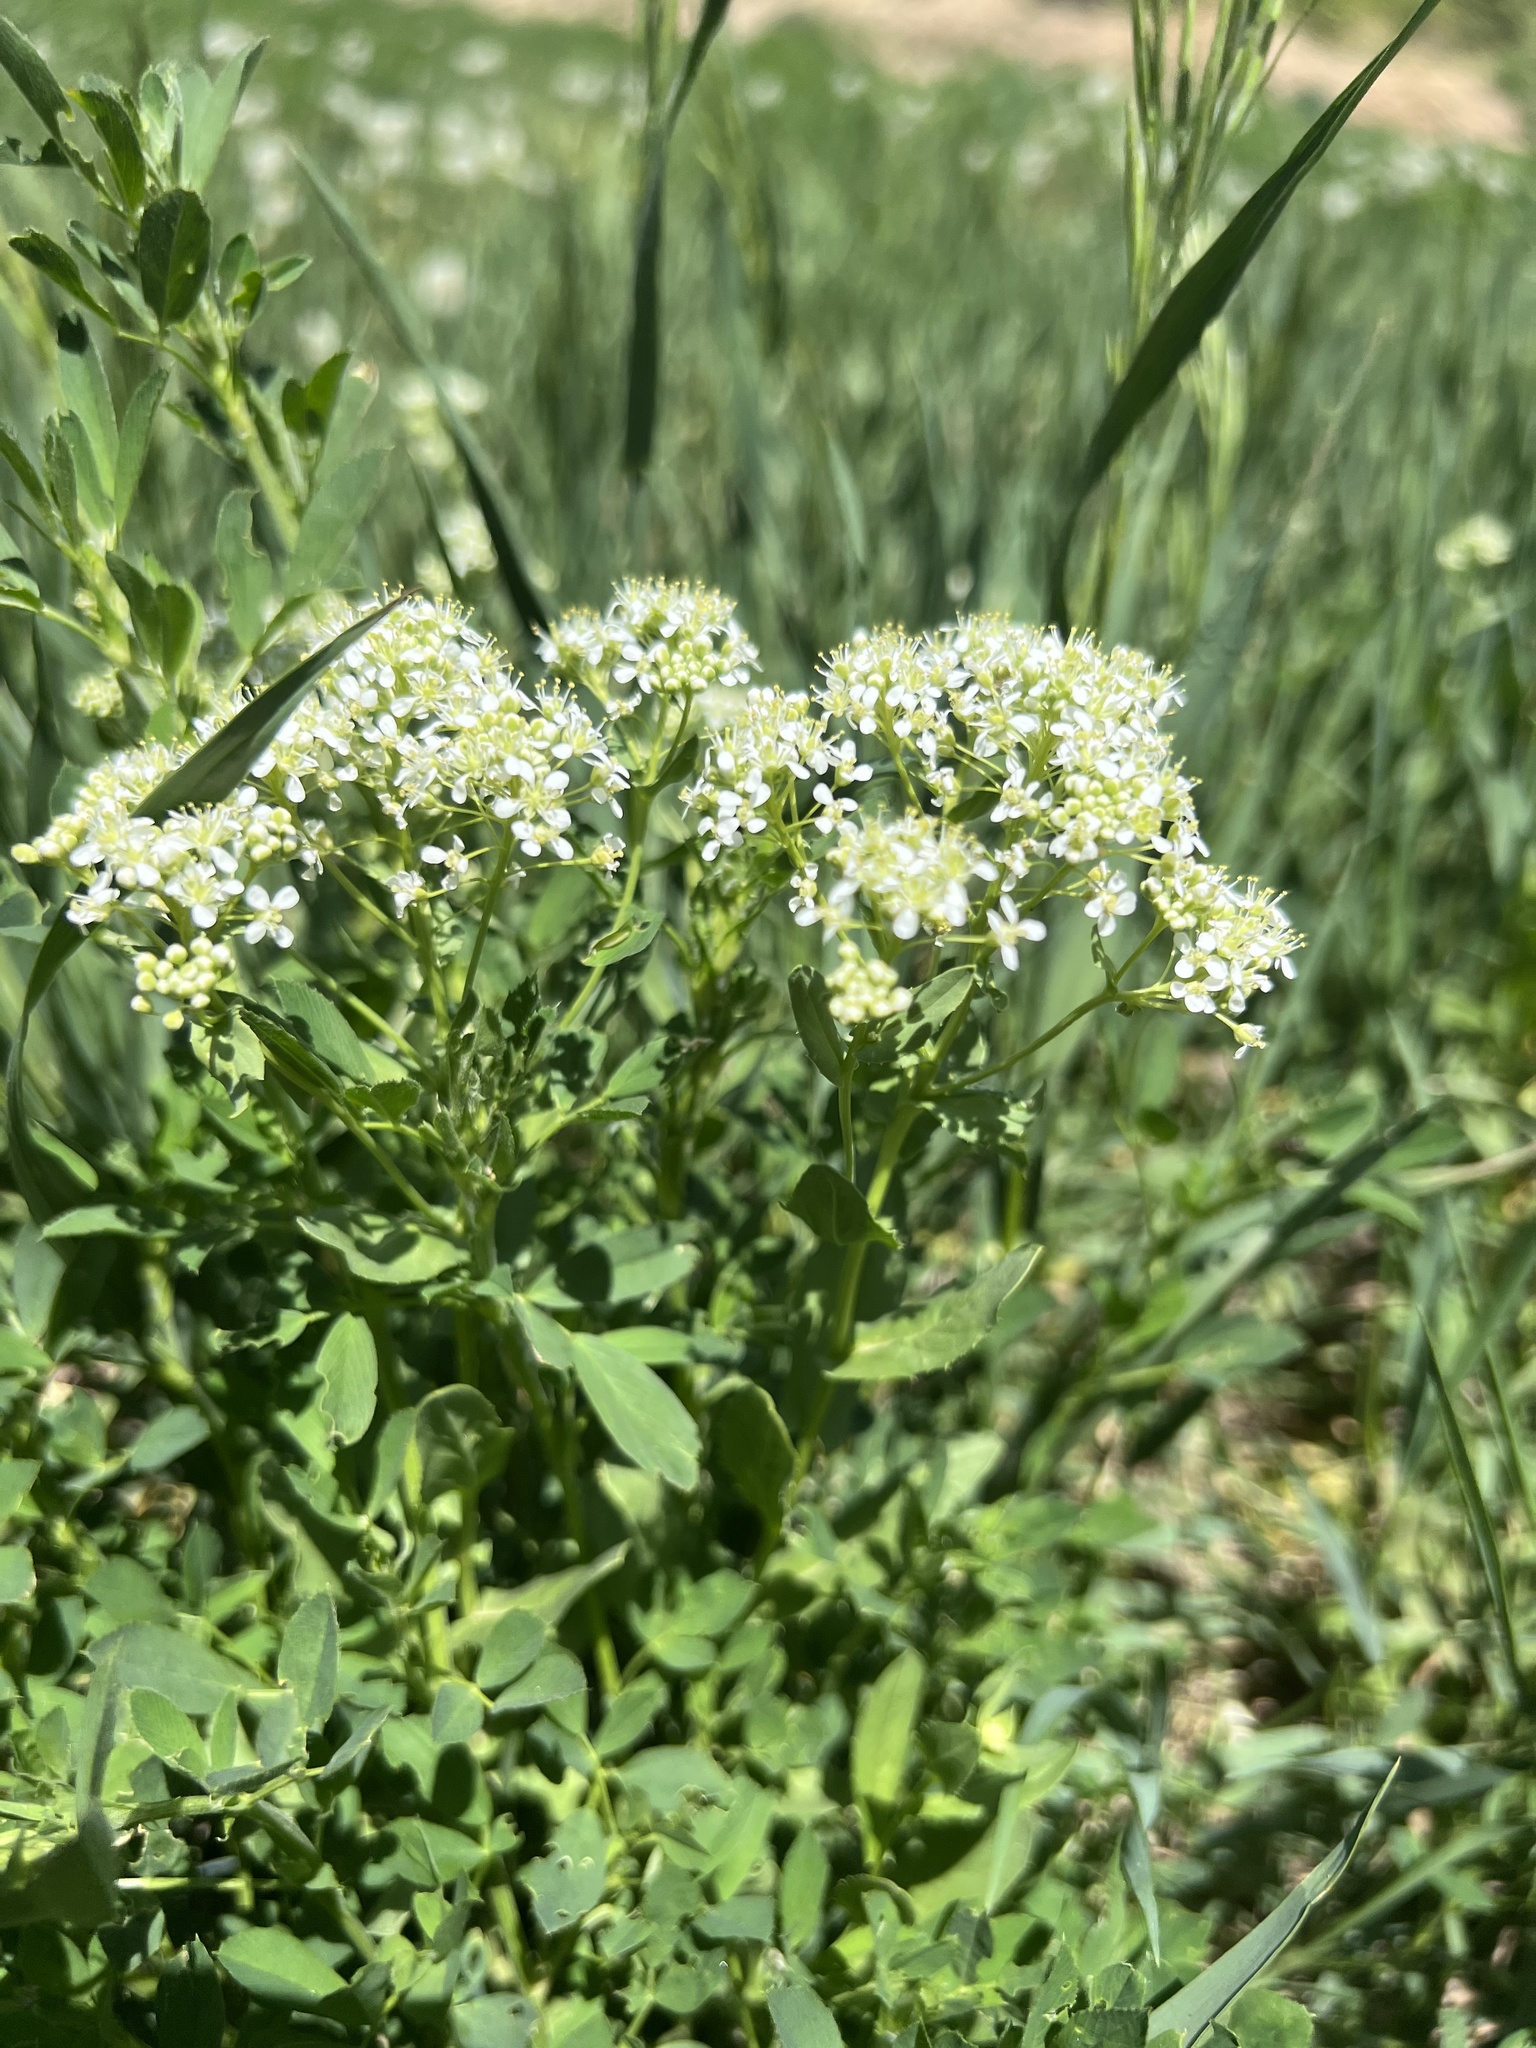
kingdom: Plantae
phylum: Tracheophyta
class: Magnoliopsida
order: Brassicales
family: Brassicaceae
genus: Lepidium
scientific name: Lepidium
